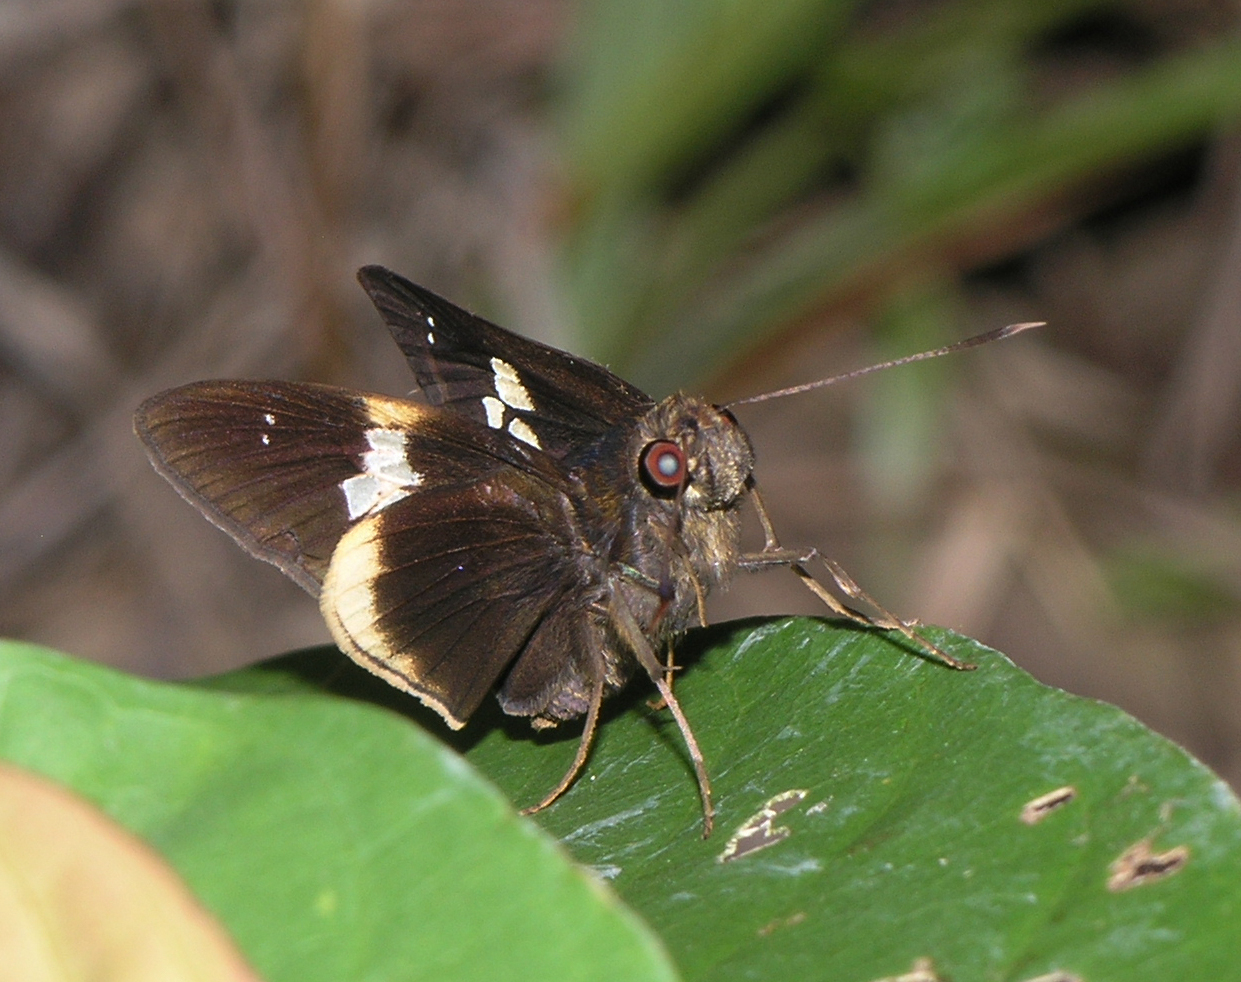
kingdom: Animalia
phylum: Arthropoda
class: Insecta
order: Lepidoptera
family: Hesperiidae
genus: Lotongus
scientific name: Lotongus calathus
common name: White-tipped palmer
